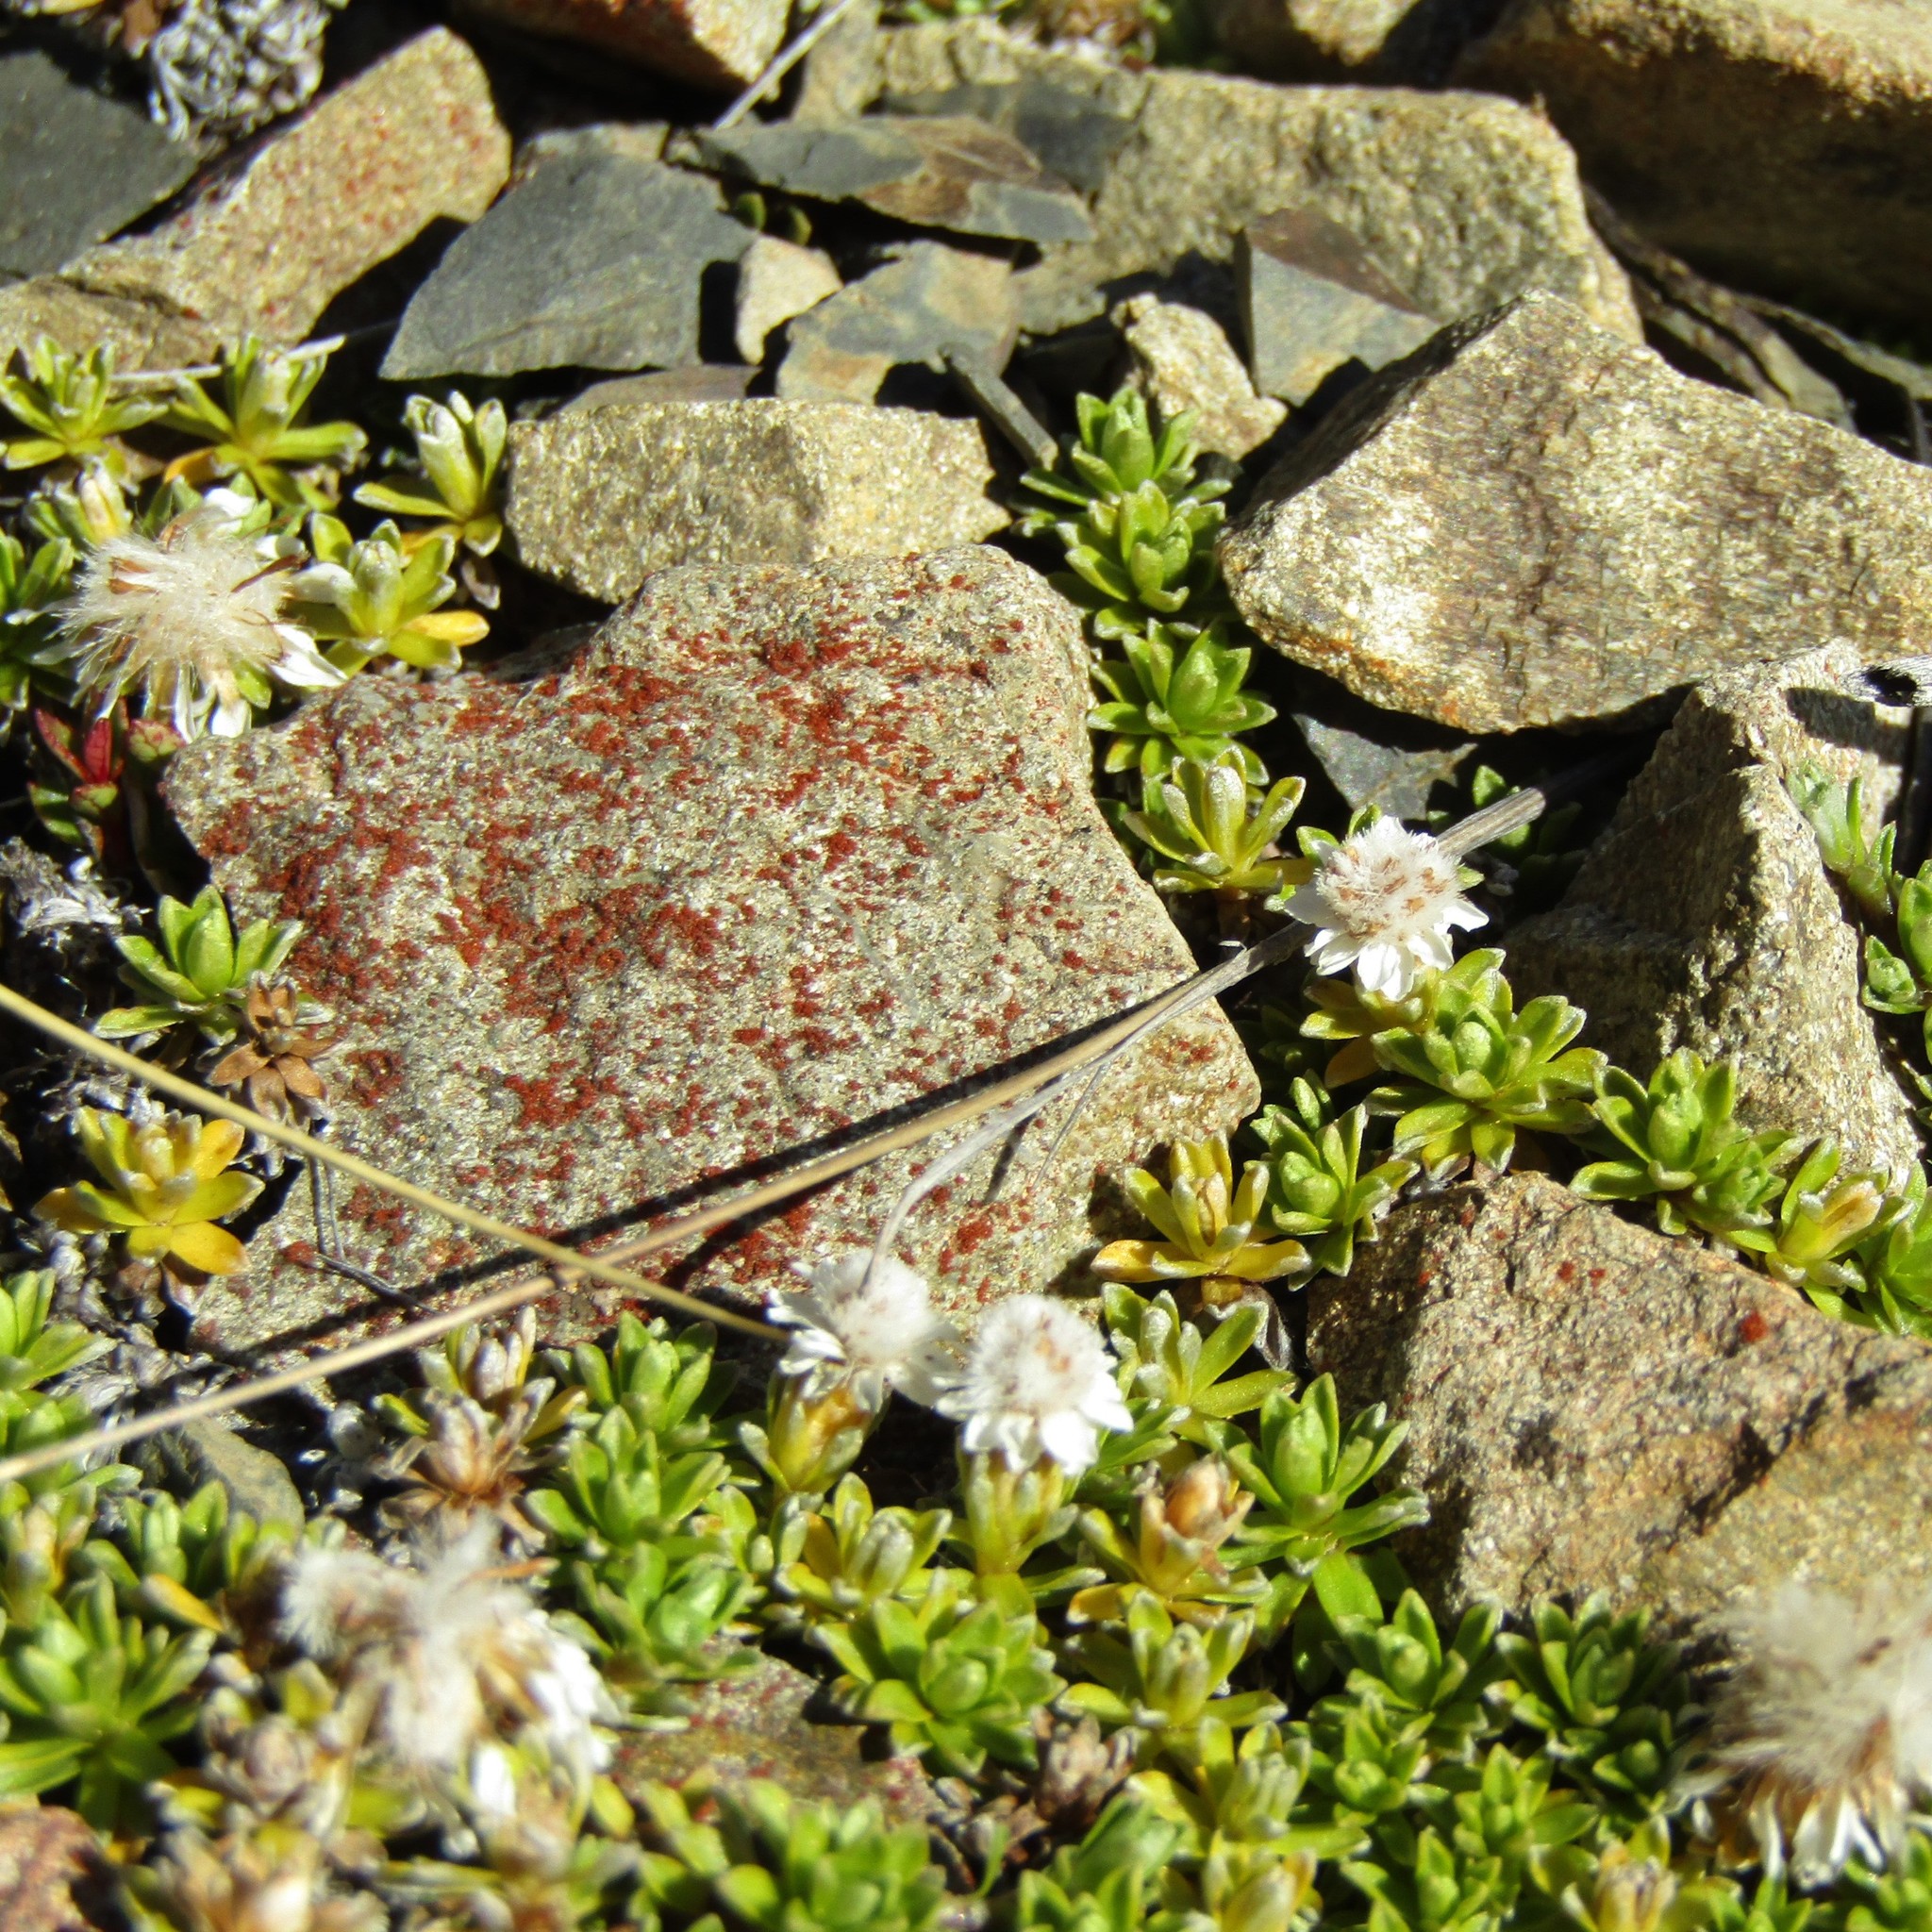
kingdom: Plantae
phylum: Tracheophyta
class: Magnoliopsida
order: Asterales
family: Asteraceae
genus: Raoulia
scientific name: Raoulia subsericea
